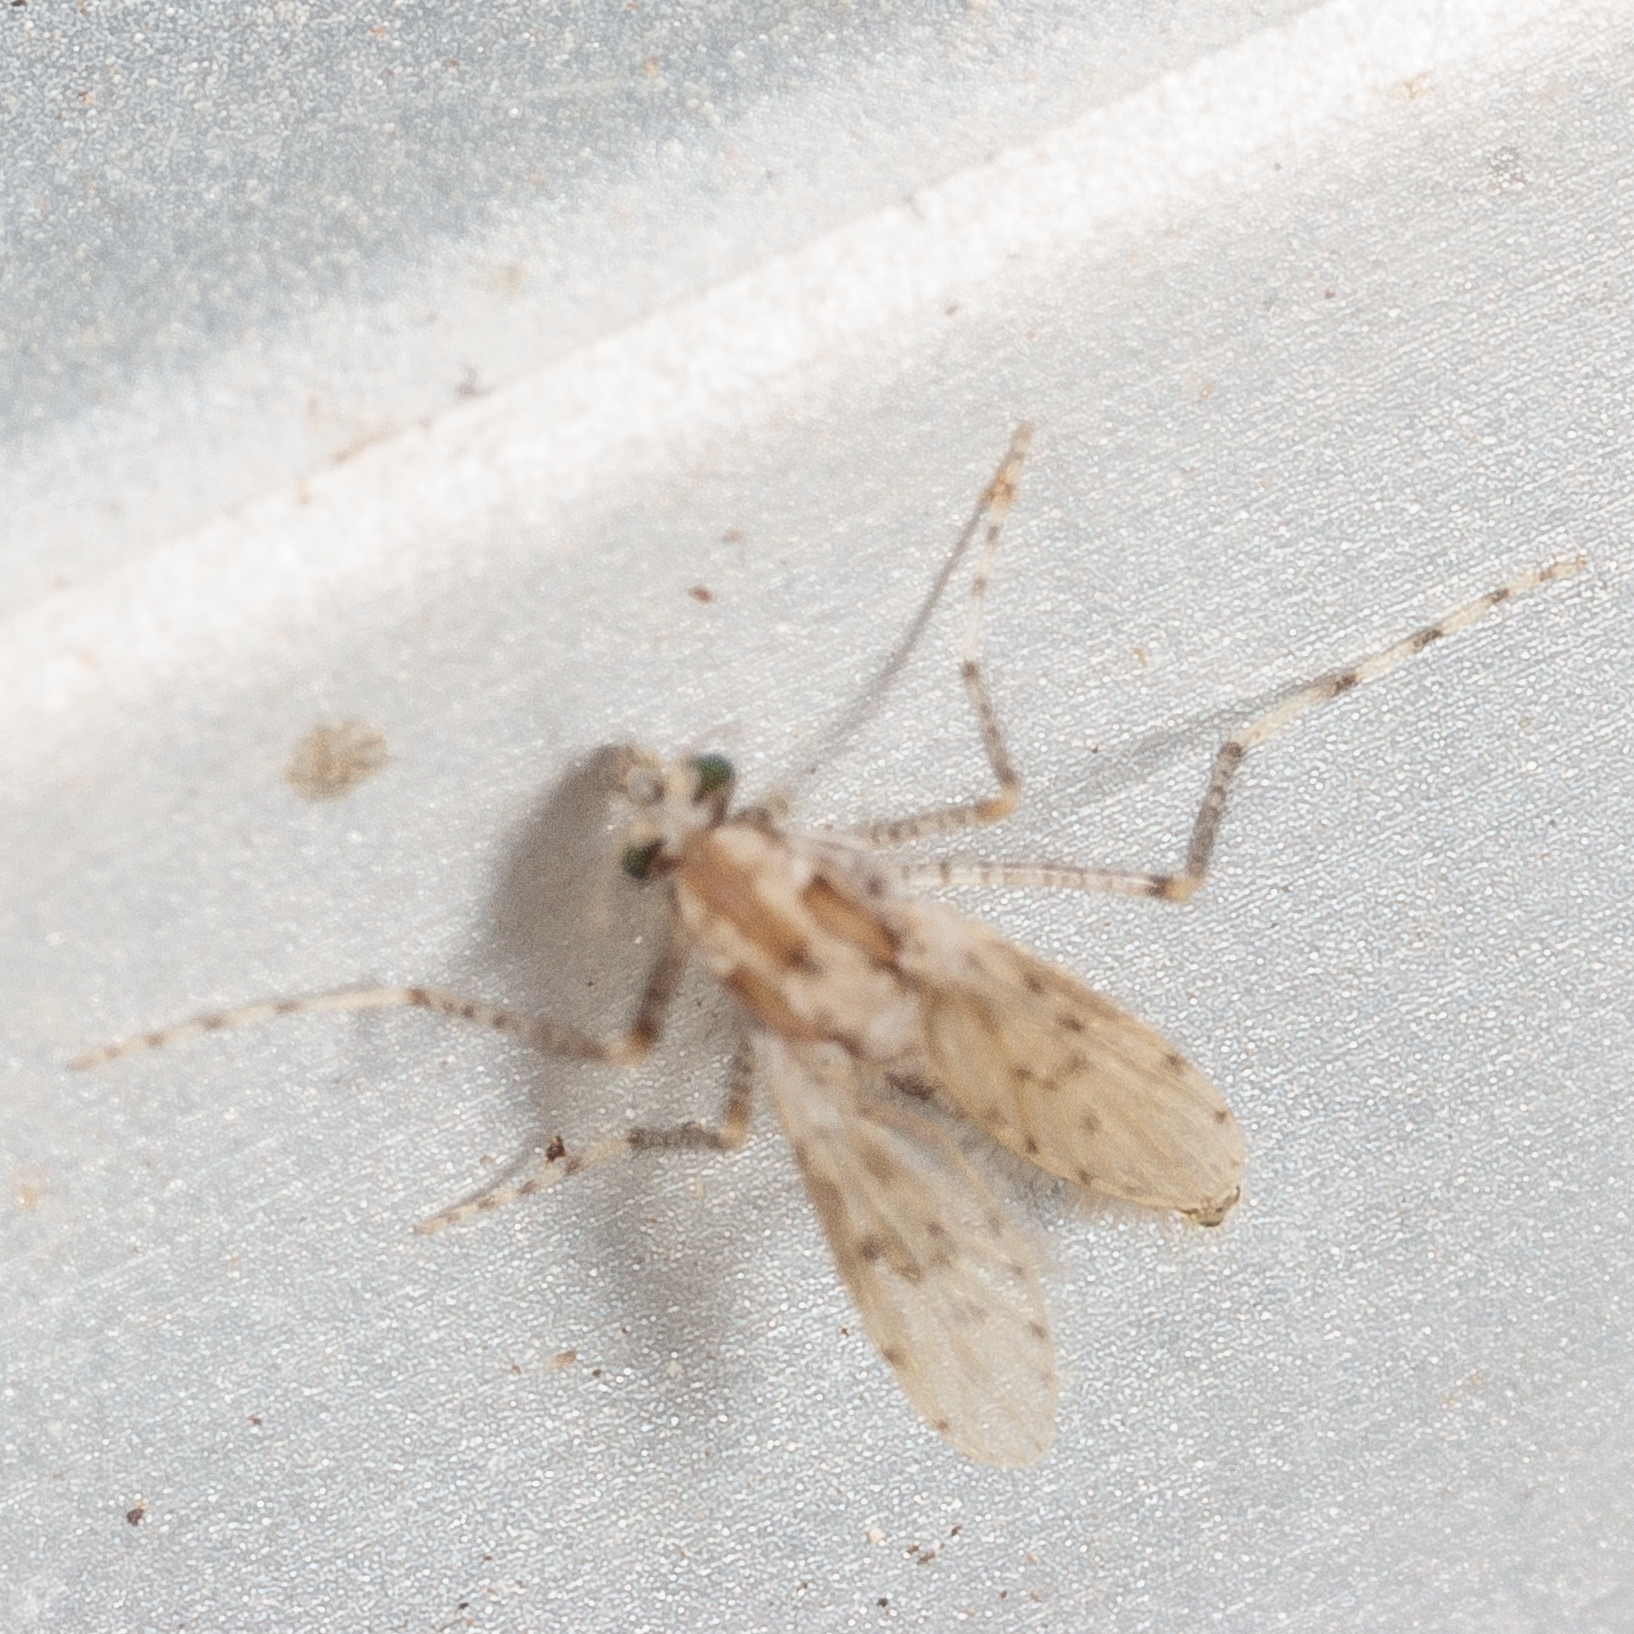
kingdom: Animalia
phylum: Arthropoda
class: Insecta
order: Diptera
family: Chaoboridae
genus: Chaoborus
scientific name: Chaoborus punctipennis
